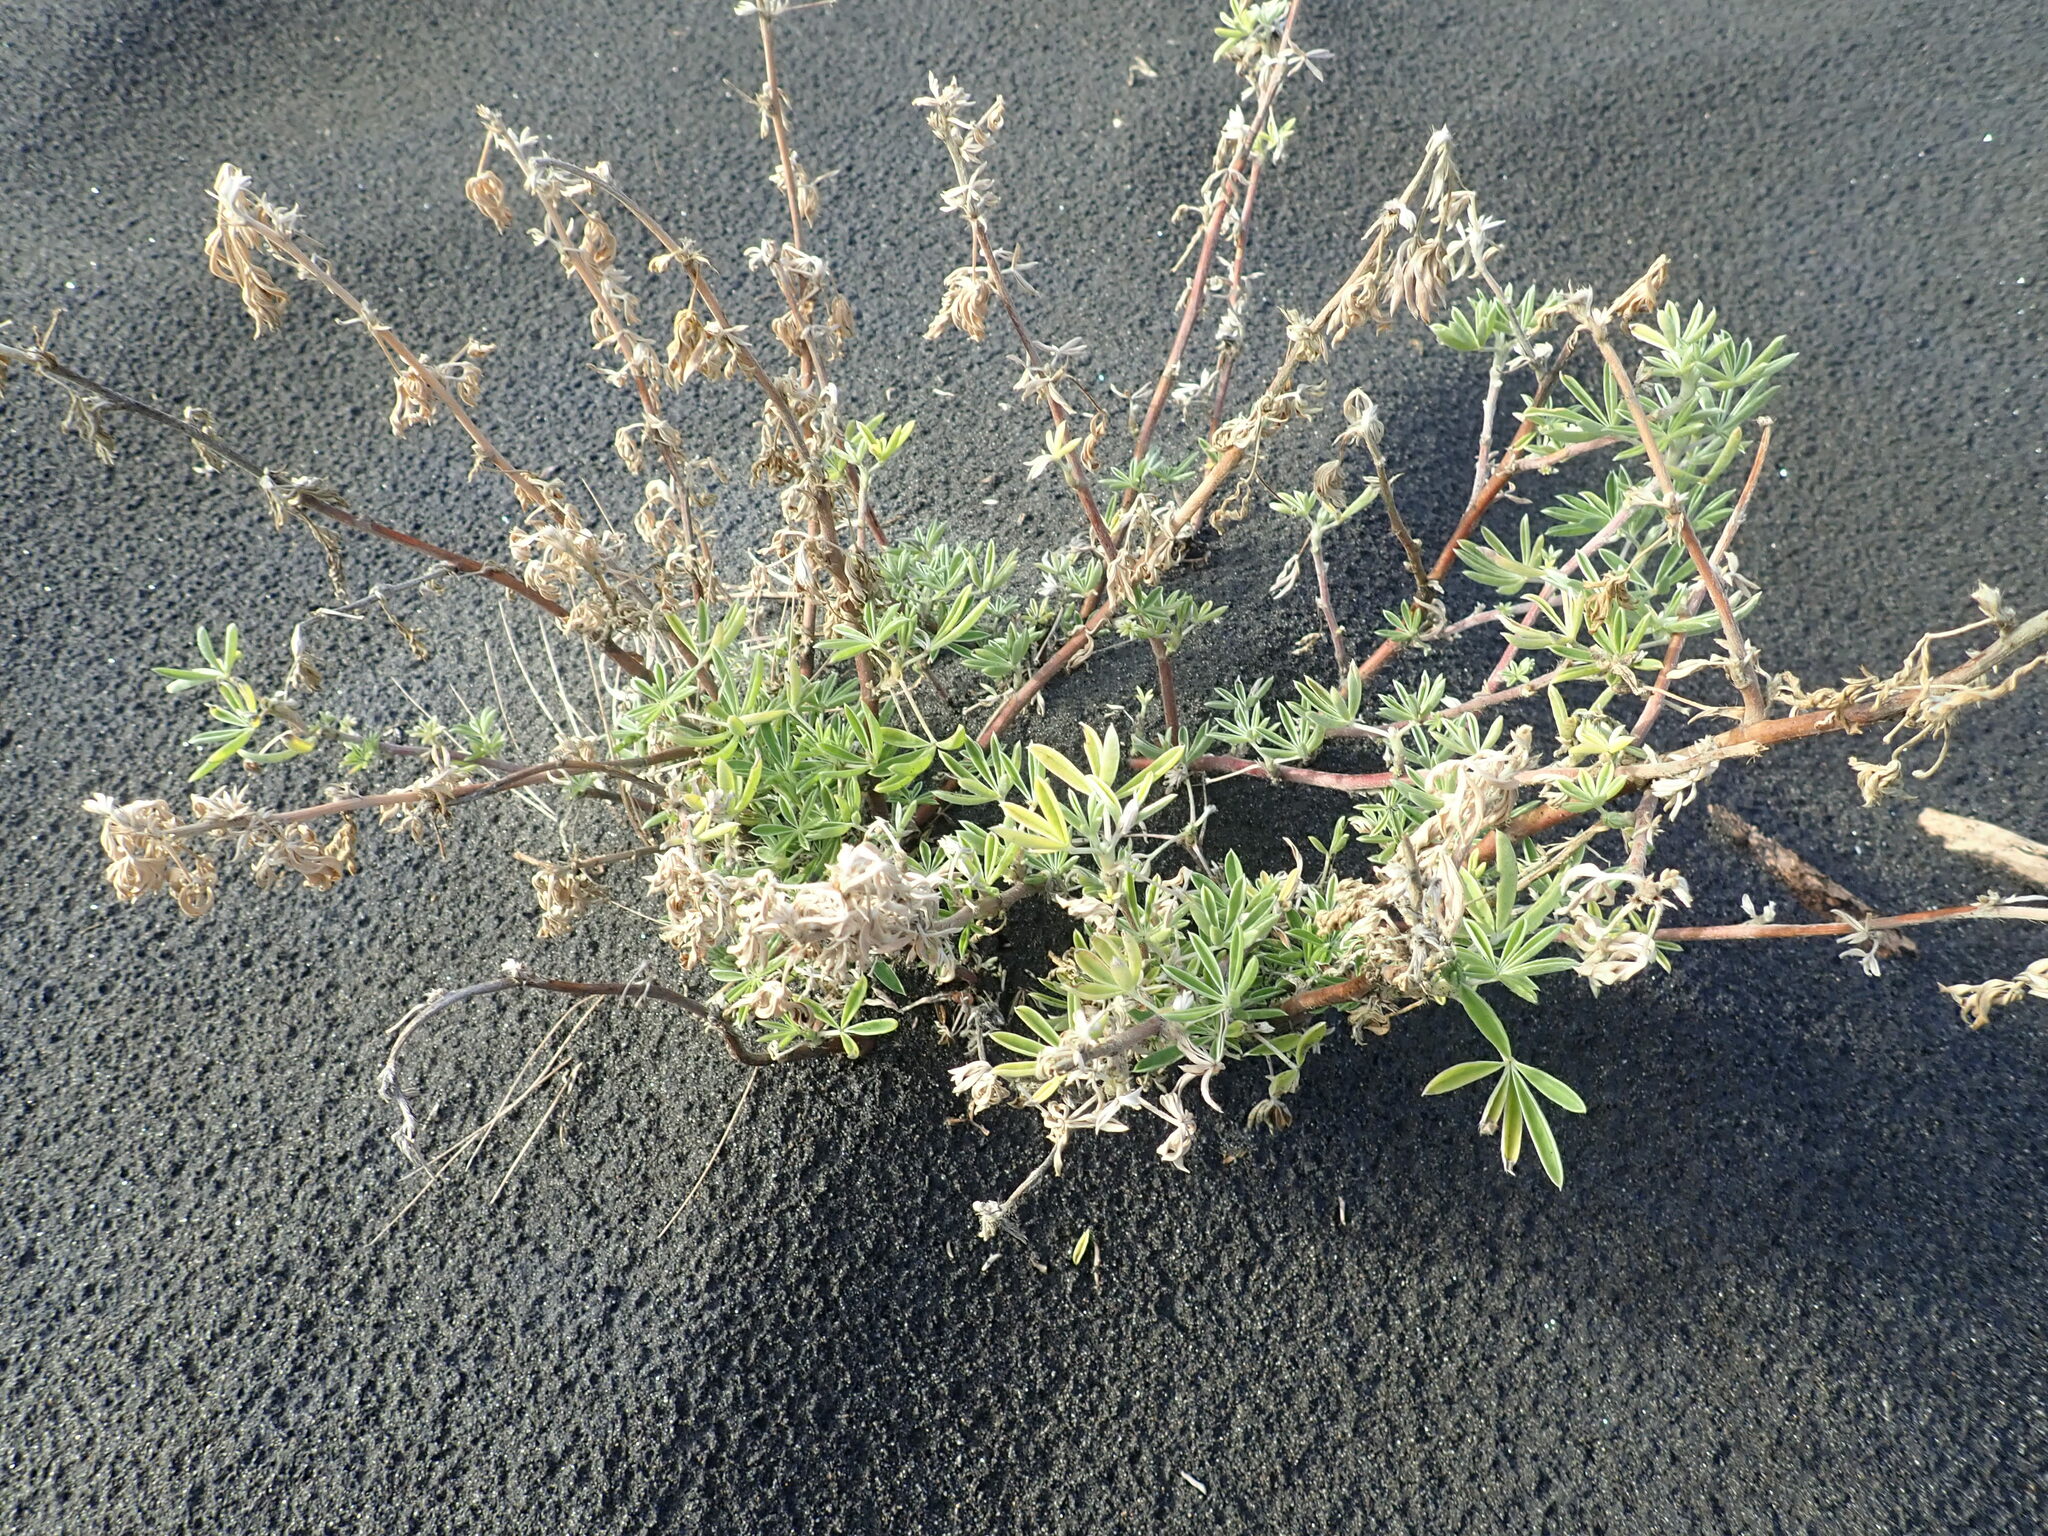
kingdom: Plantae
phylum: Tracheophyta
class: Magnoliopsida
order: Fabales
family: Fabaceae
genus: Lupinus
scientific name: Lupinus arboreus
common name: Yellow bush lupine
